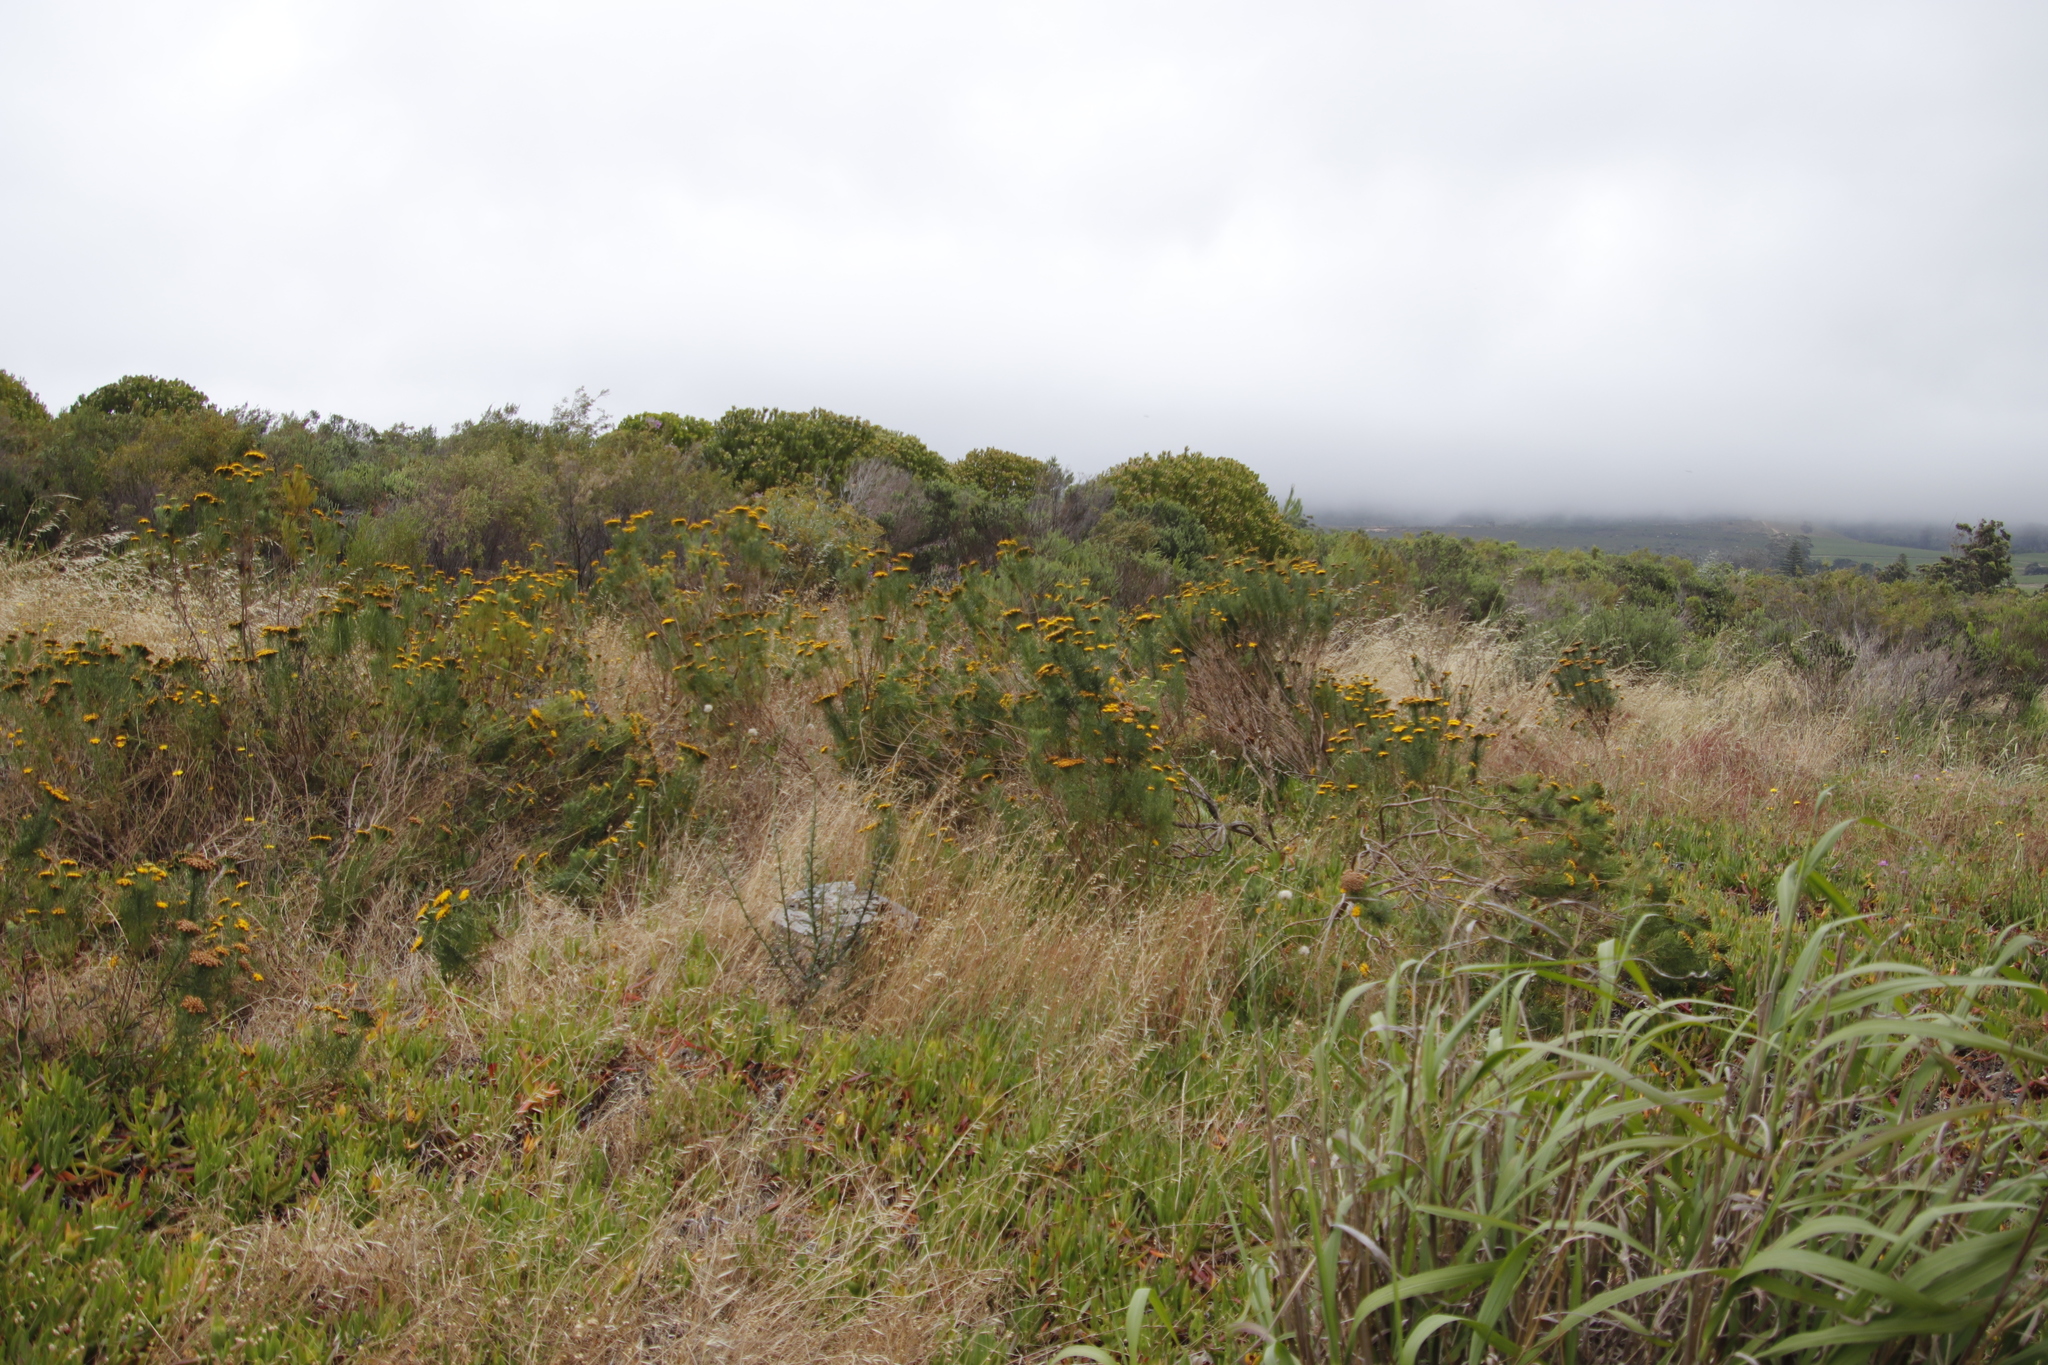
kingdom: Plantae
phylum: Tracheophyta
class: Magnoliopsida
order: Asterales
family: Asteraceae
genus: Athanasia
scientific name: Athanasia crithmifolia
